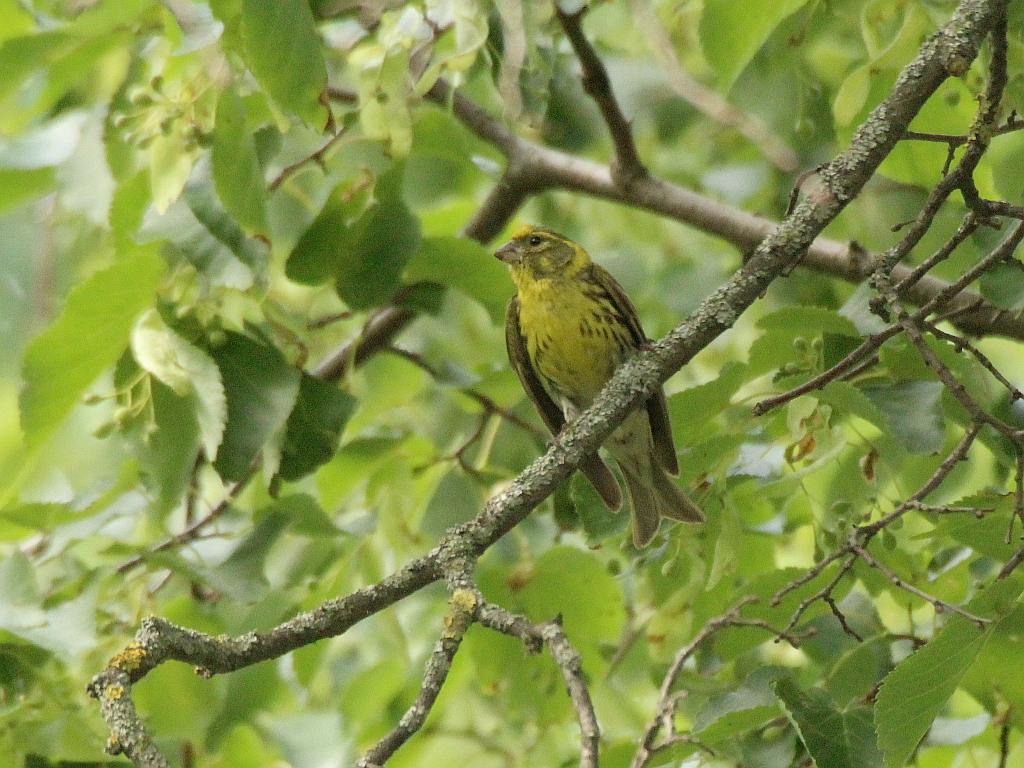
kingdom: Animalia
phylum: Chordata
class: Aves
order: Passeriformes
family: Fringillidae
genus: Serinus
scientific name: Serinus serinus
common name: European serin
